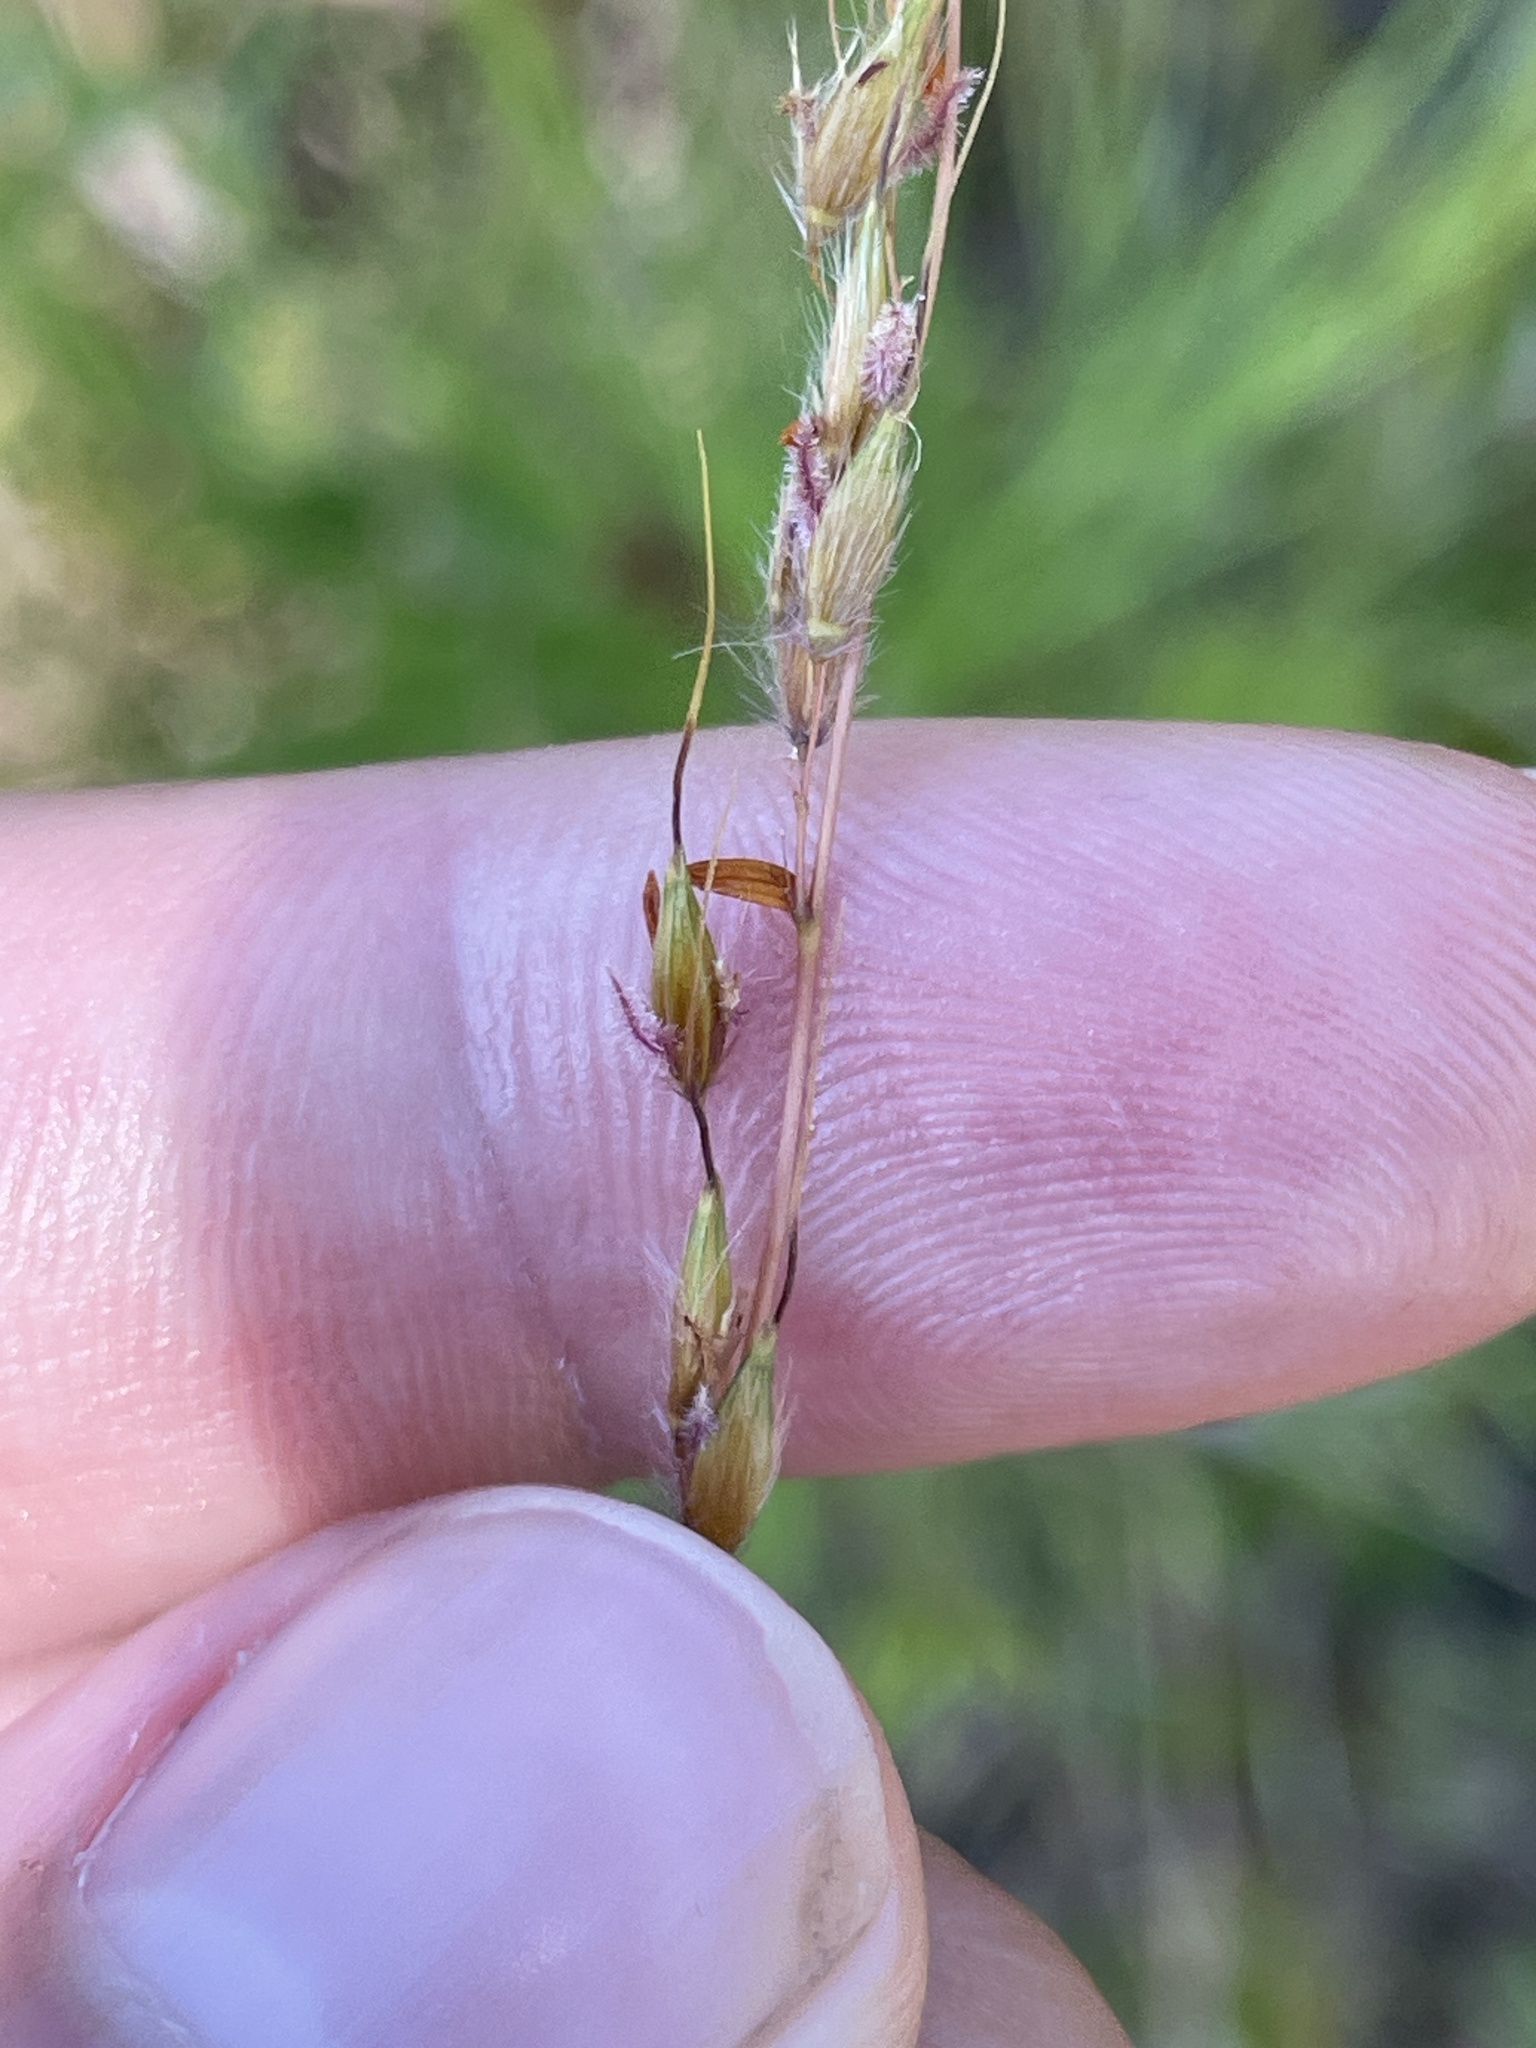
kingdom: Plantae
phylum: Tracheophyta
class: Liliopsida
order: Poales
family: Poaceae
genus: Sorghastrum
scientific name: Sorghastrum nutans
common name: Indian grass
